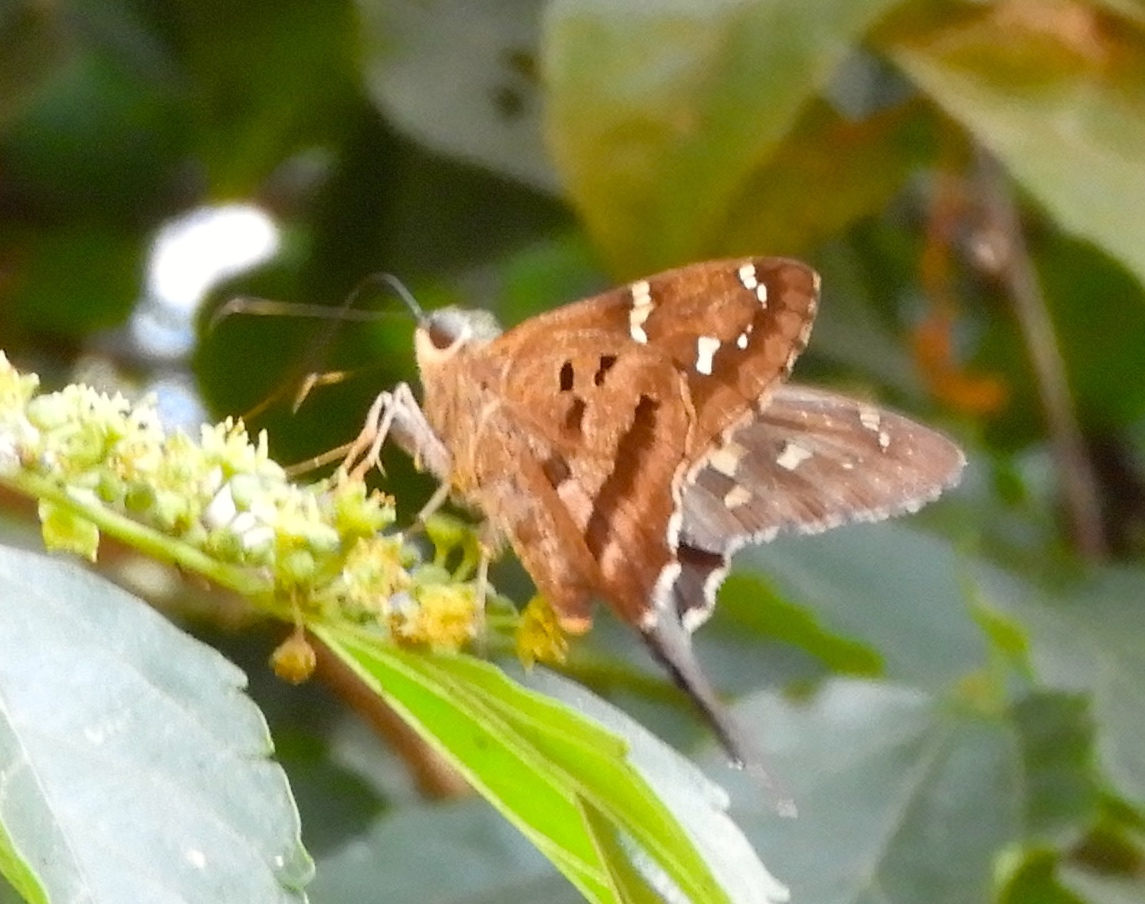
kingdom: Animalia
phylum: Arthropoda
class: Insecta
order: Lepidoptera
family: Hesperiidae
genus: Urbanus
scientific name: Urbanus proteus
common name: Long-tailed skipper
